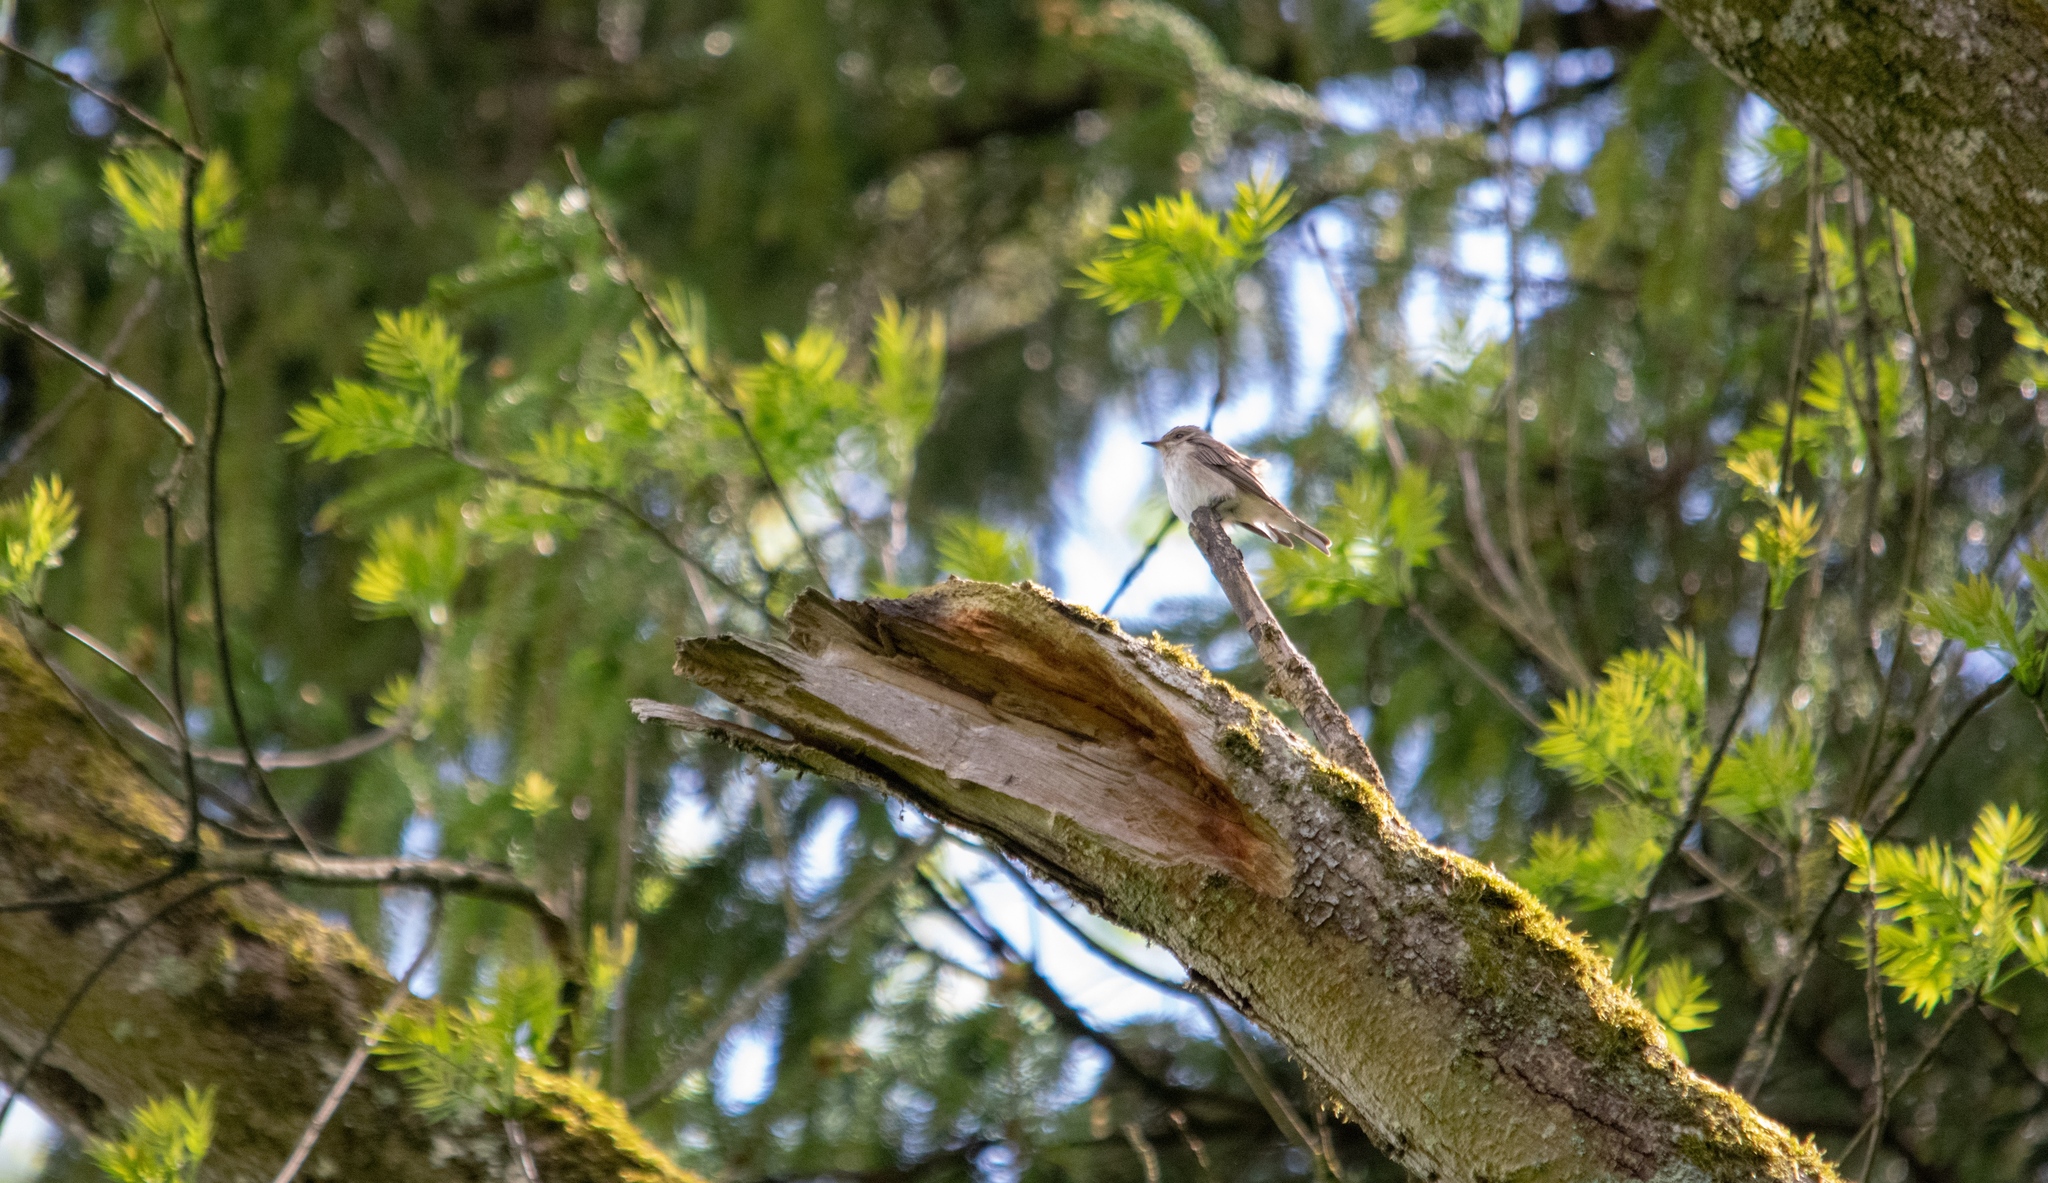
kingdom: Animalia
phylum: Chordata
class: Aves
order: Passeriformes
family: Muscicapidae
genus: Muscicapa
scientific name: Muscicapa striata
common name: Spotted flycatcher
